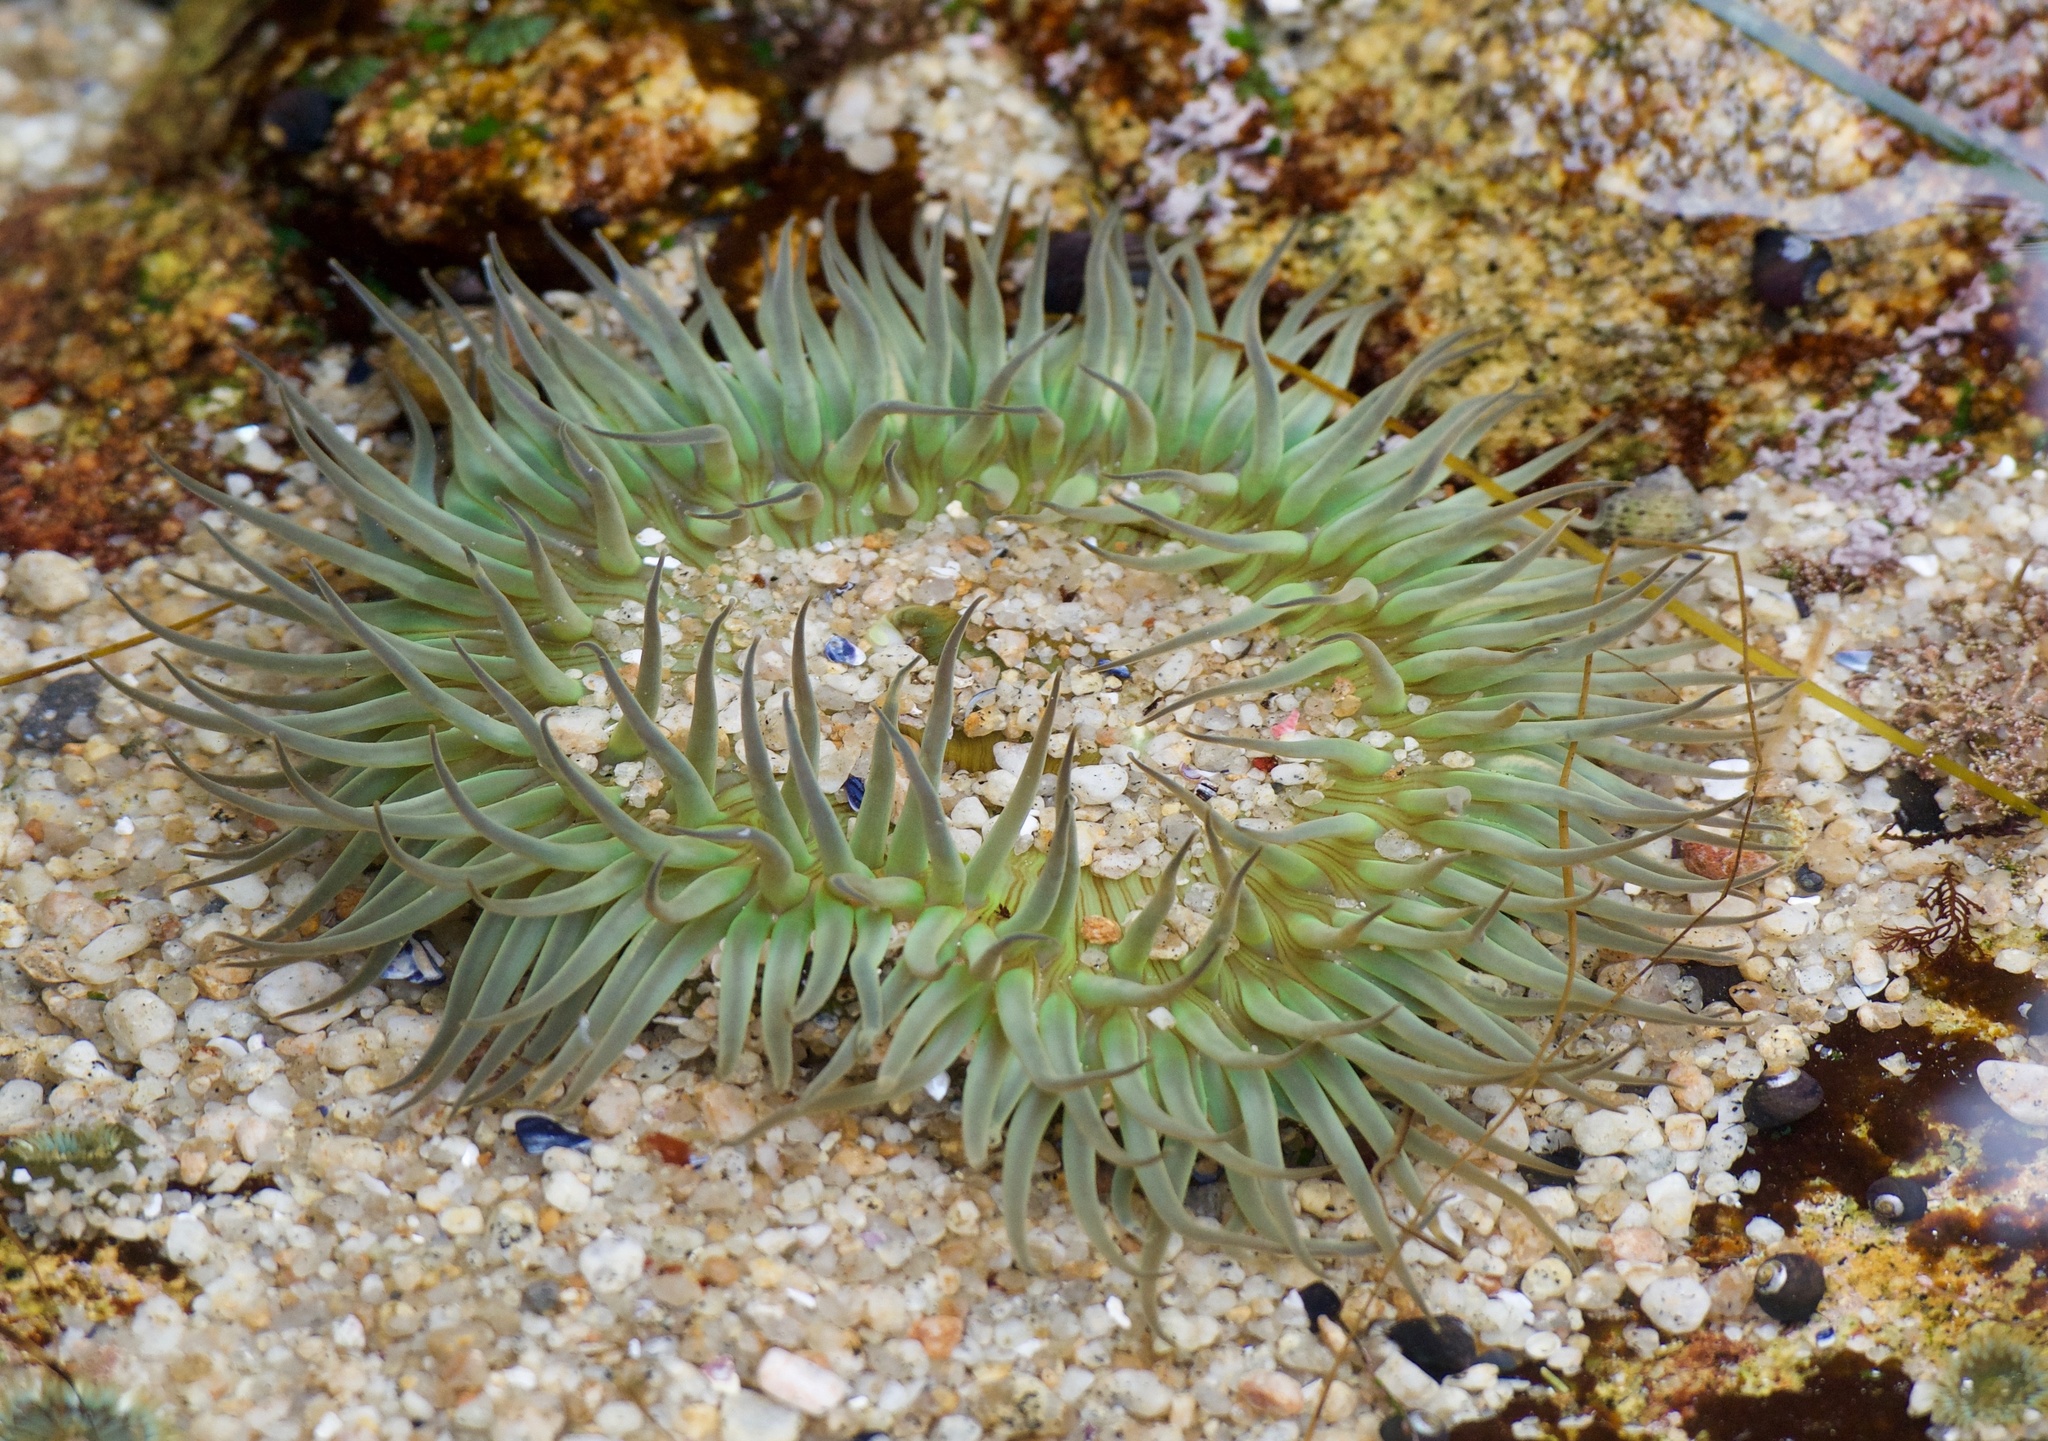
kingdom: Animalia
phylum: Cnidaria
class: Anthozoa
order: Actiniaria
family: Actiniidae
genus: Anthopleura
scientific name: Anthopleura sola
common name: Sun anemone
